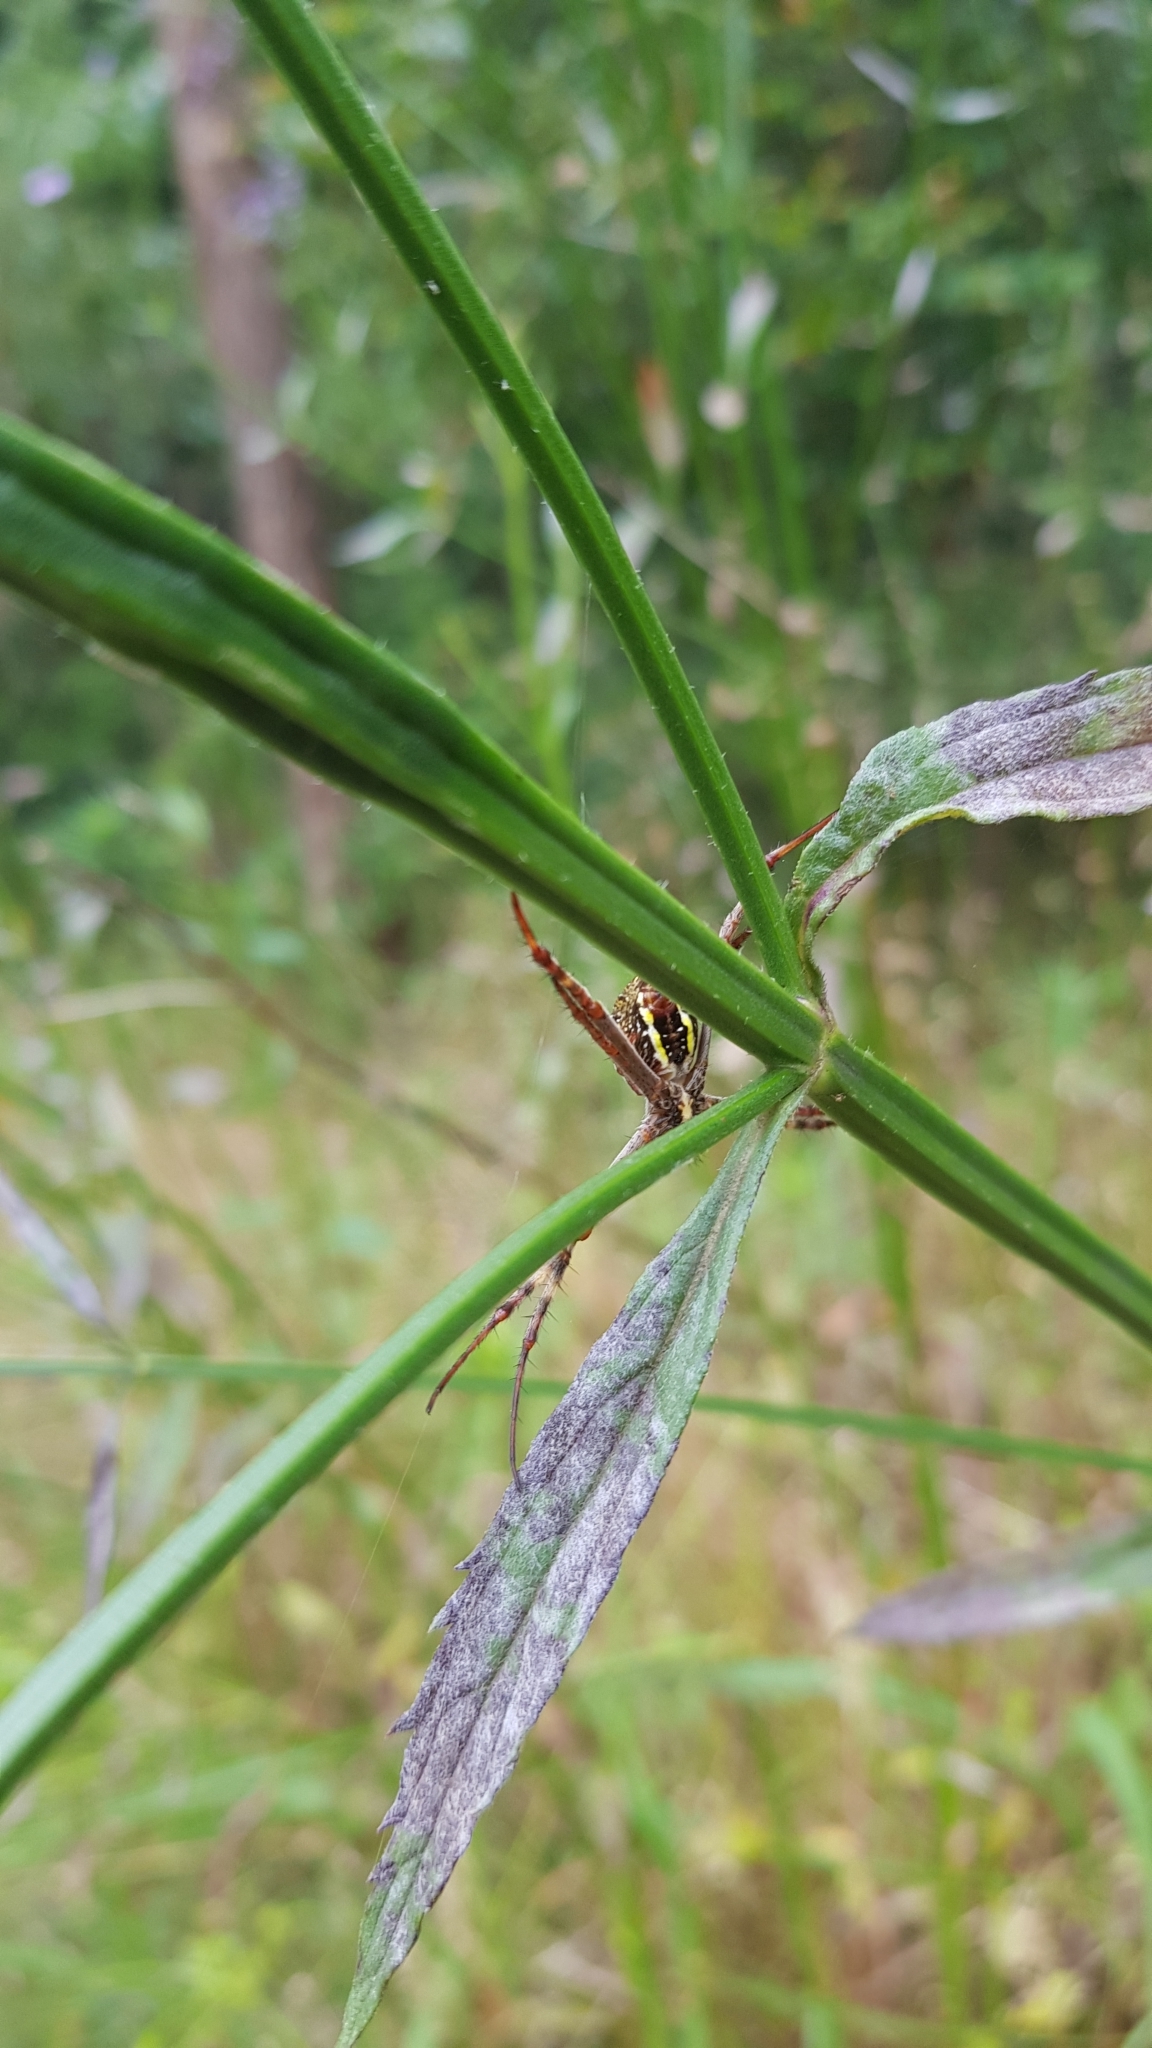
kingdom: Animalia
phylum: Arthropoda
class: Arachnida
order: Araneae
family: Araneidae
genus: Argiope
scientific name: Argiope keyserlingi
